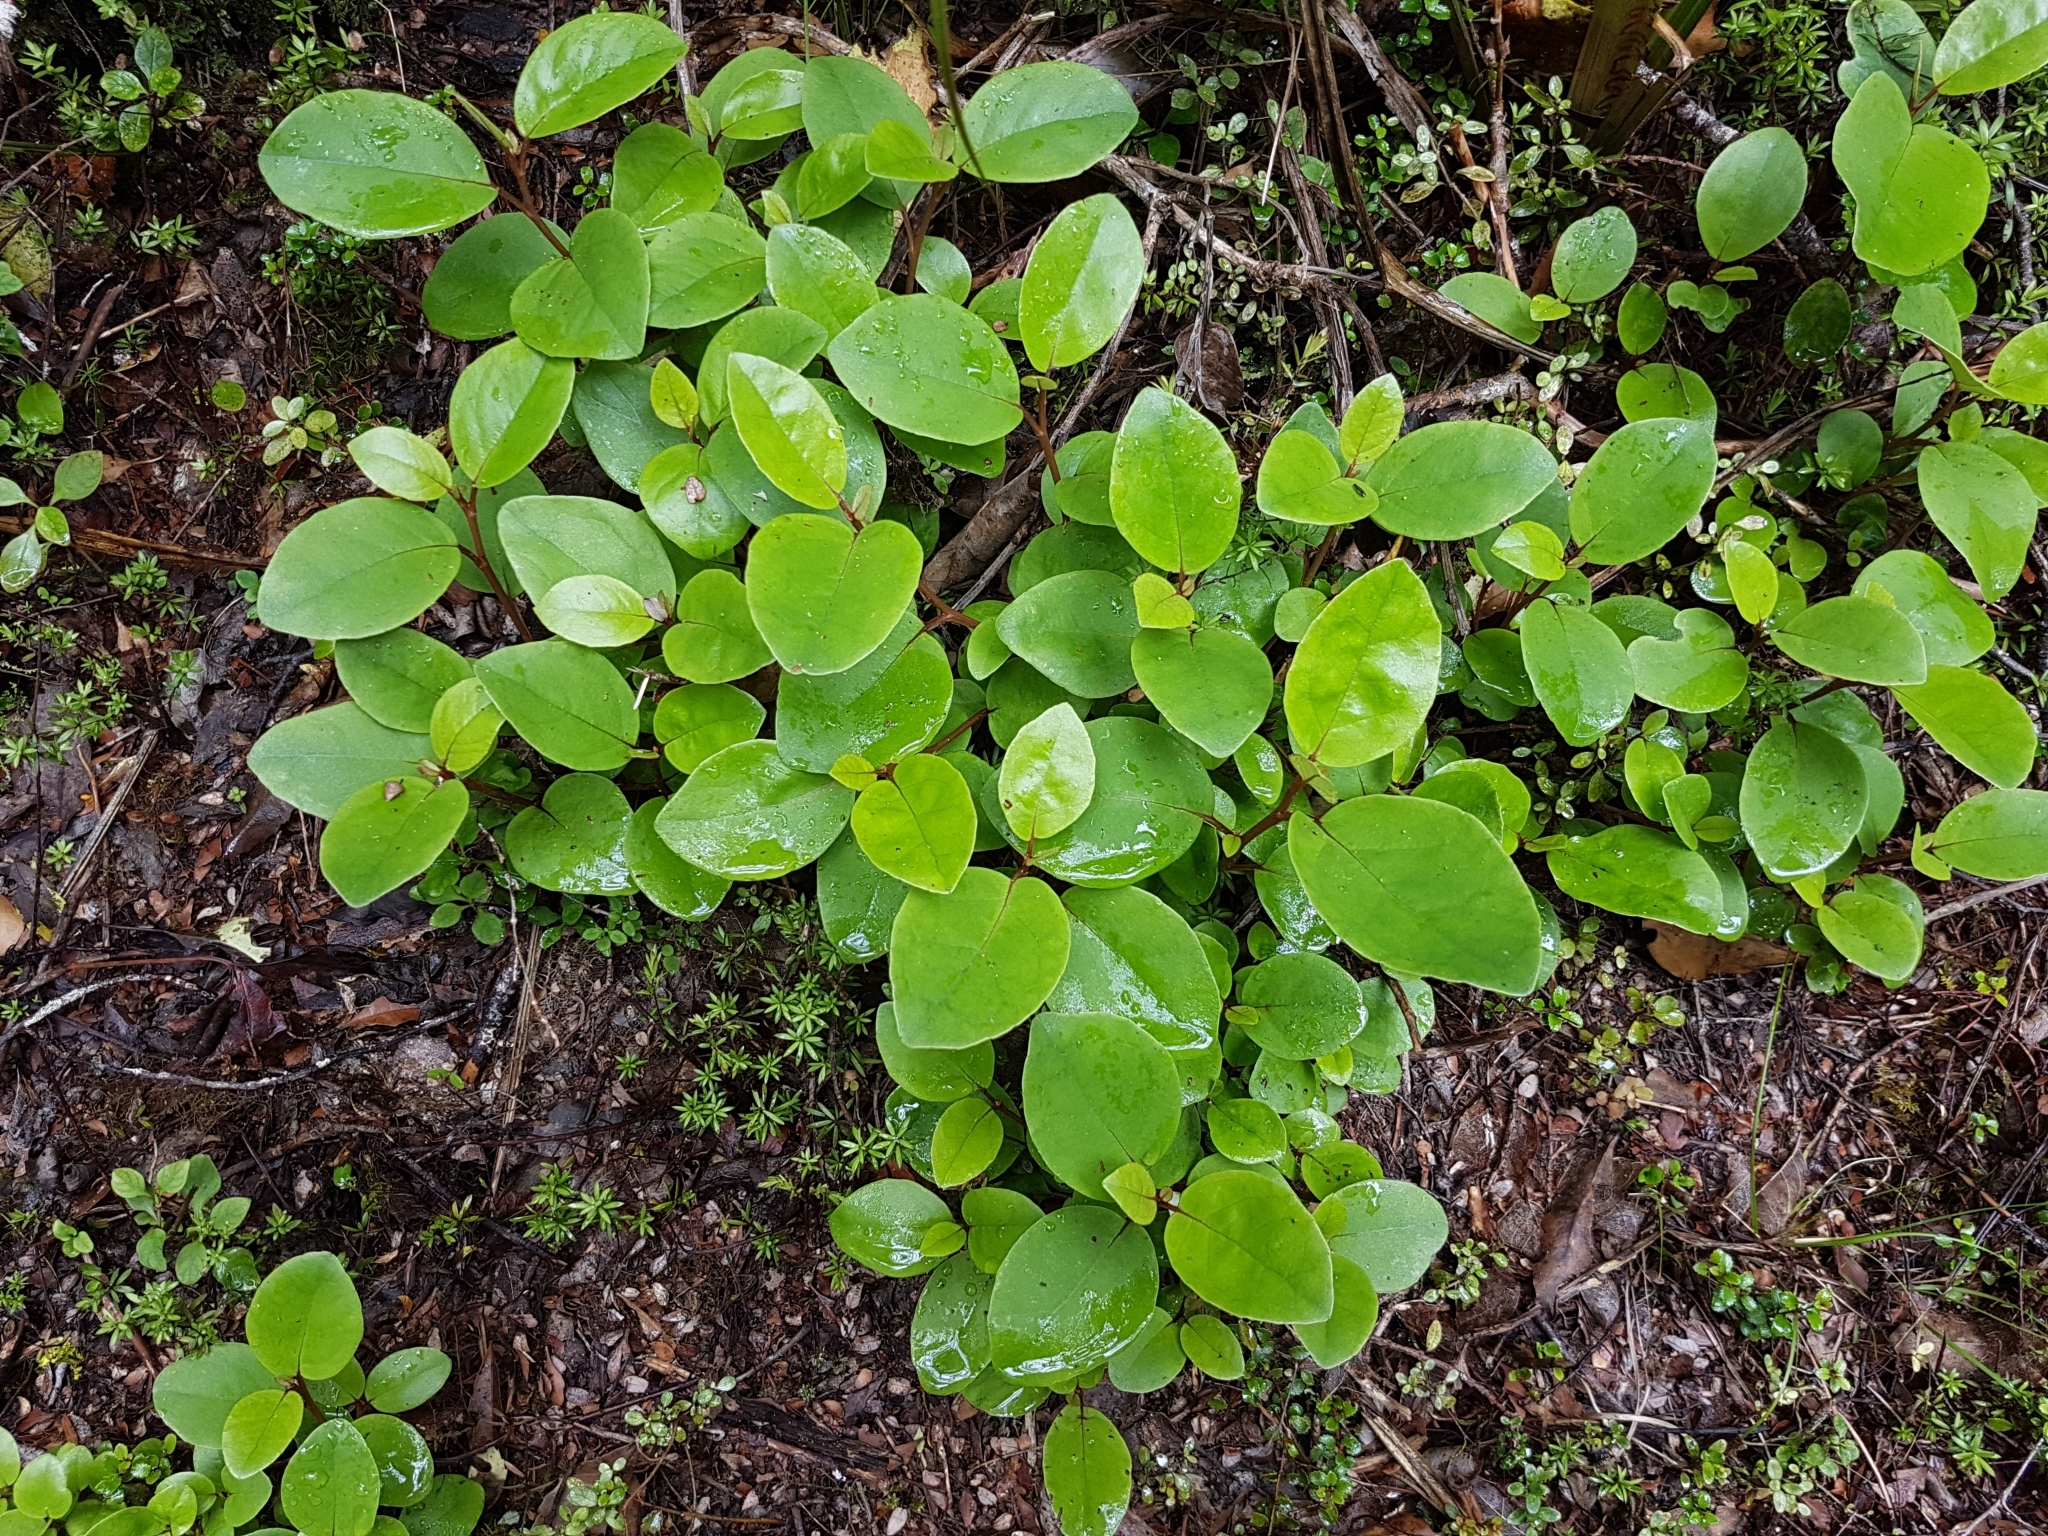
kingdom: Plantae
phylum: Tracheophyta
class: Magnoliopsida
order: Asterales
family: Asteraceae
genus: Olearia
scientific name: Olearia arborescens
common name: Glossy tree daisy
